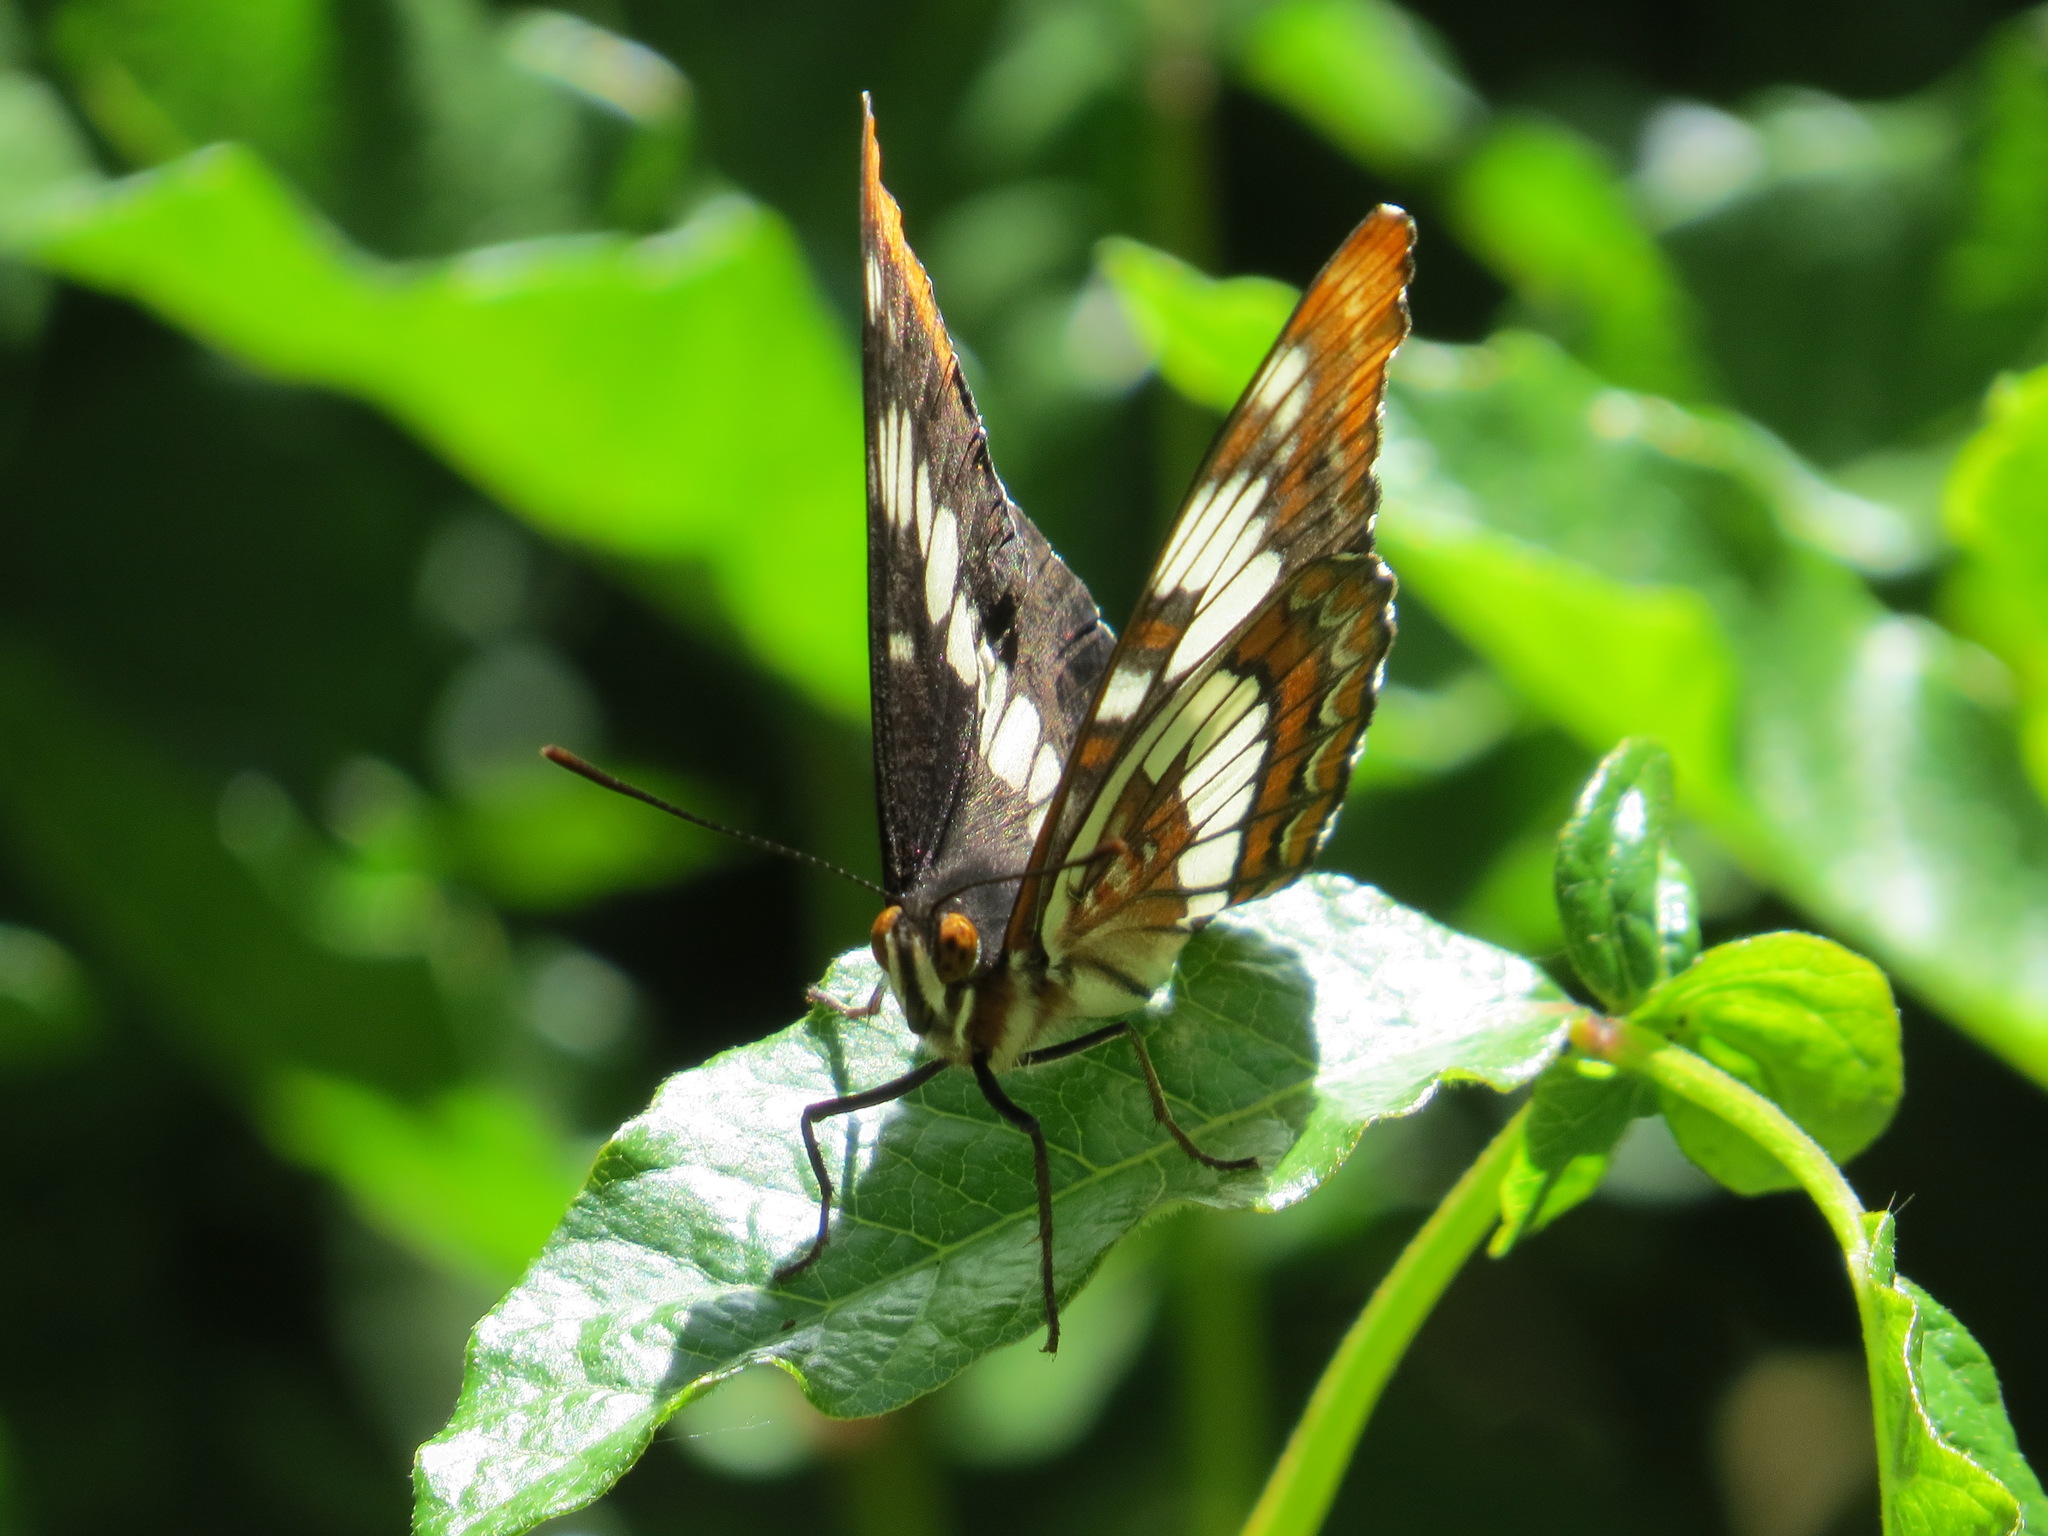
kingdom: Animalia
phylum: Arthropoda
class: Insecta
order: Lepidoptera
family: Nymphalidae
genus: Limenitis
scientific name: Limenitis lorquini
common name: Lorquin's admiral
